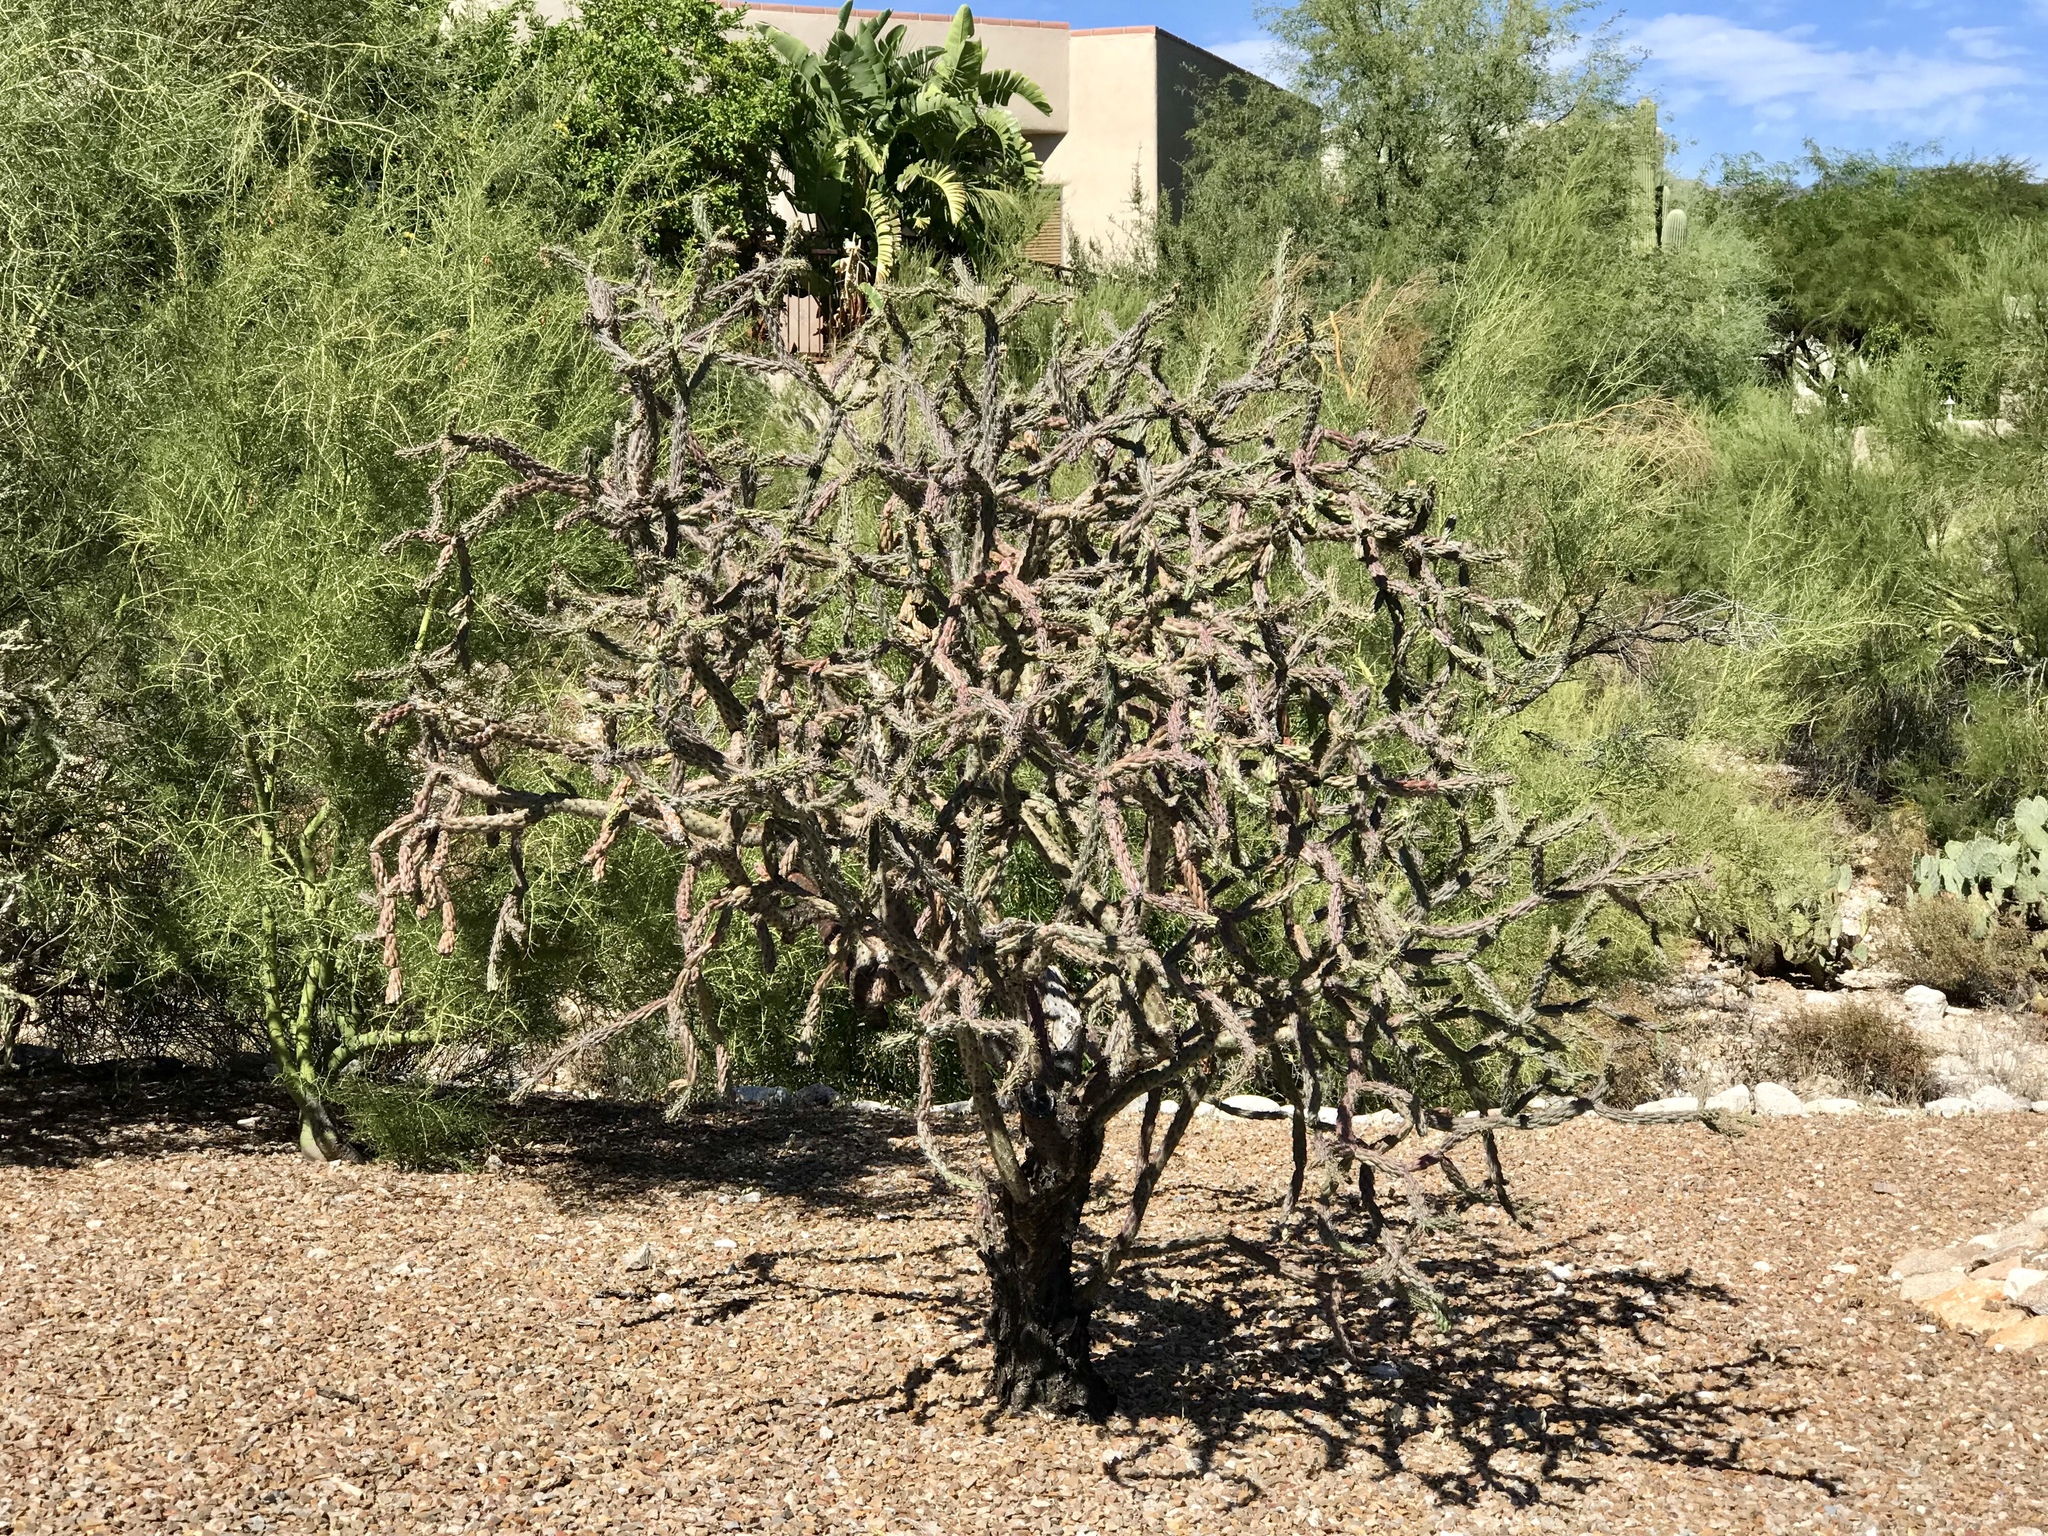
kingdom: Plantae
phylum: Tracheophyta
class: Magnoliopsida
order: Caryophyllales
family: Cactaceae
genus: Cylindropuntia
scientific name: Cylindropuntia thurberi
